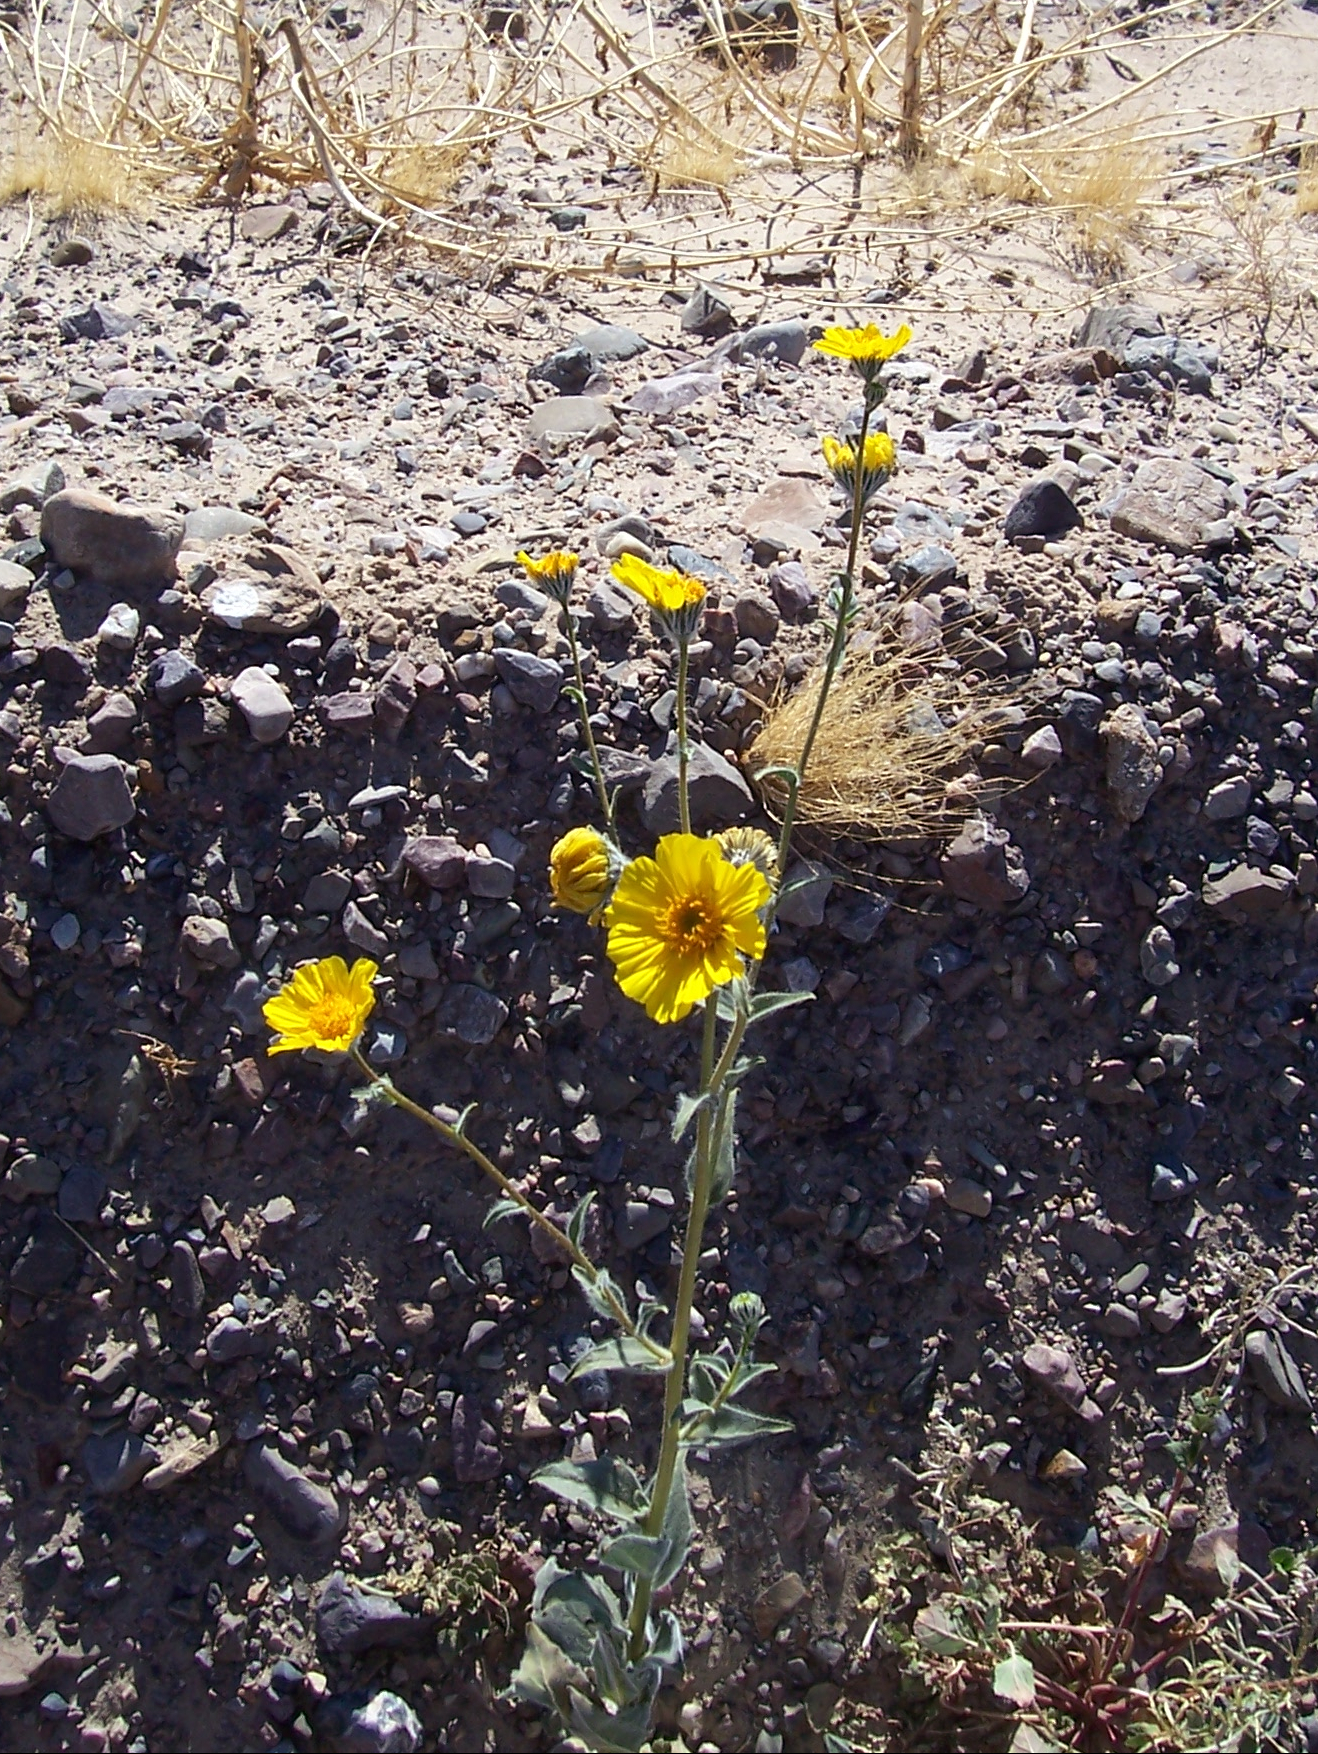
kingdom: Plantae
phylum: Tracheophyta
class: Magnoliopsida
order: Asterales
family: Asteraceae
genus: Geraea
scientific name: Geraea canescens
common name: Desert-gold
